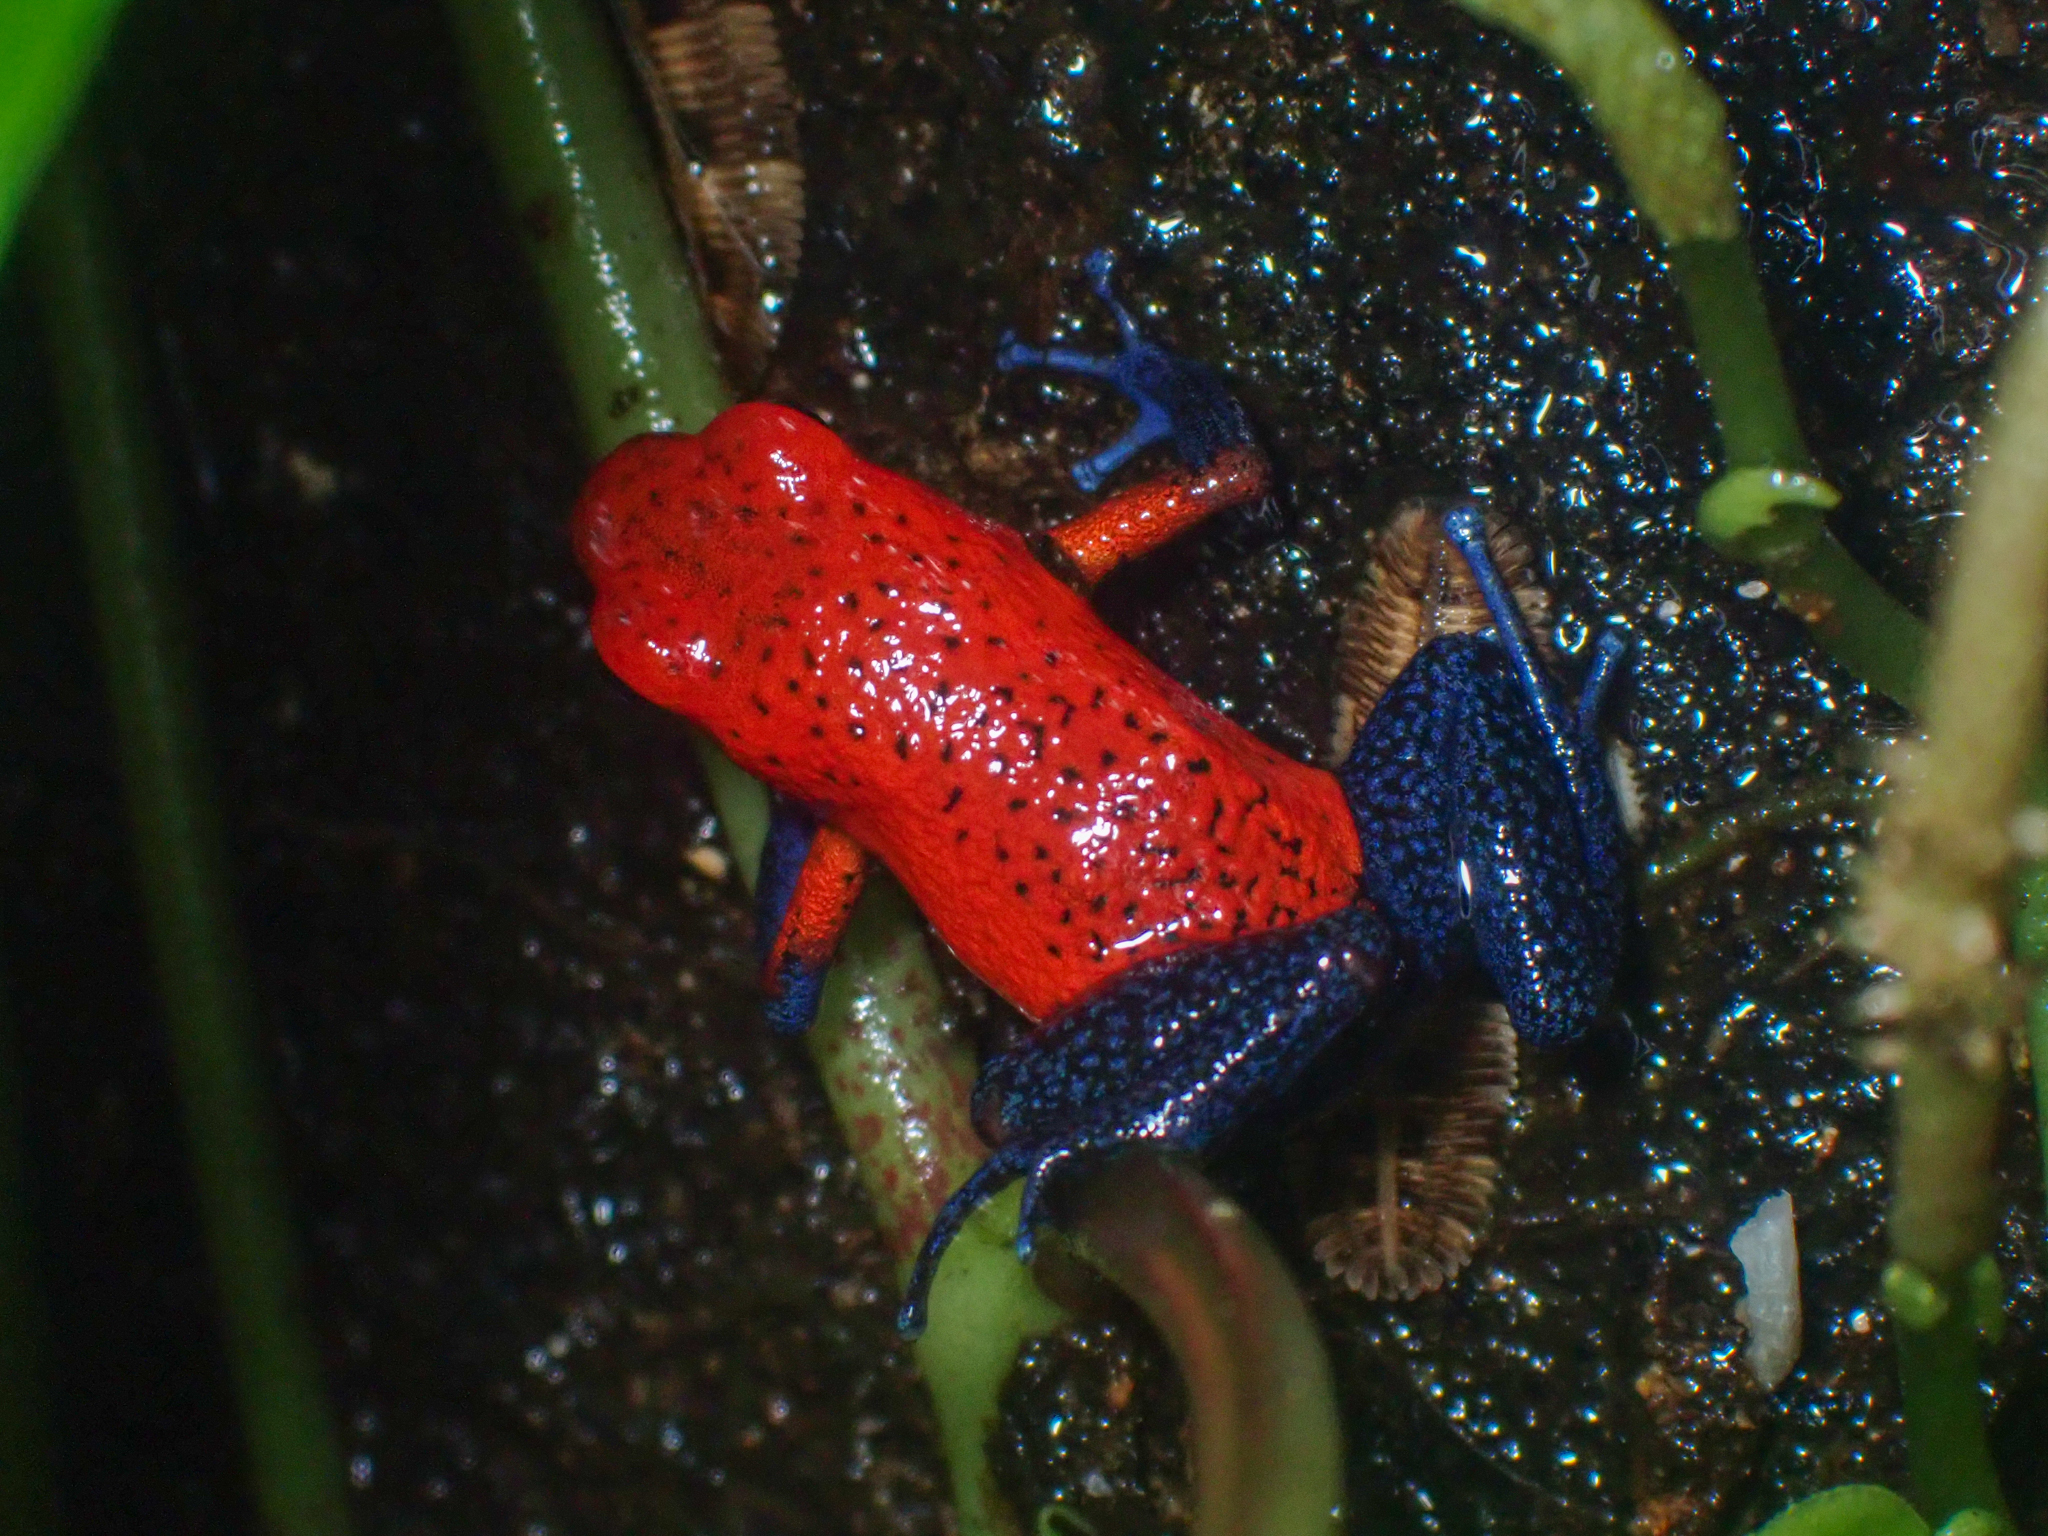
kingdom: Animalia
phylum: Chordata
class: Amphibia
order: Anura
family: Dendrobatidae
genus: Oophaga
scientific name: Oophaga pumilio
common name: Flaming poison frog
